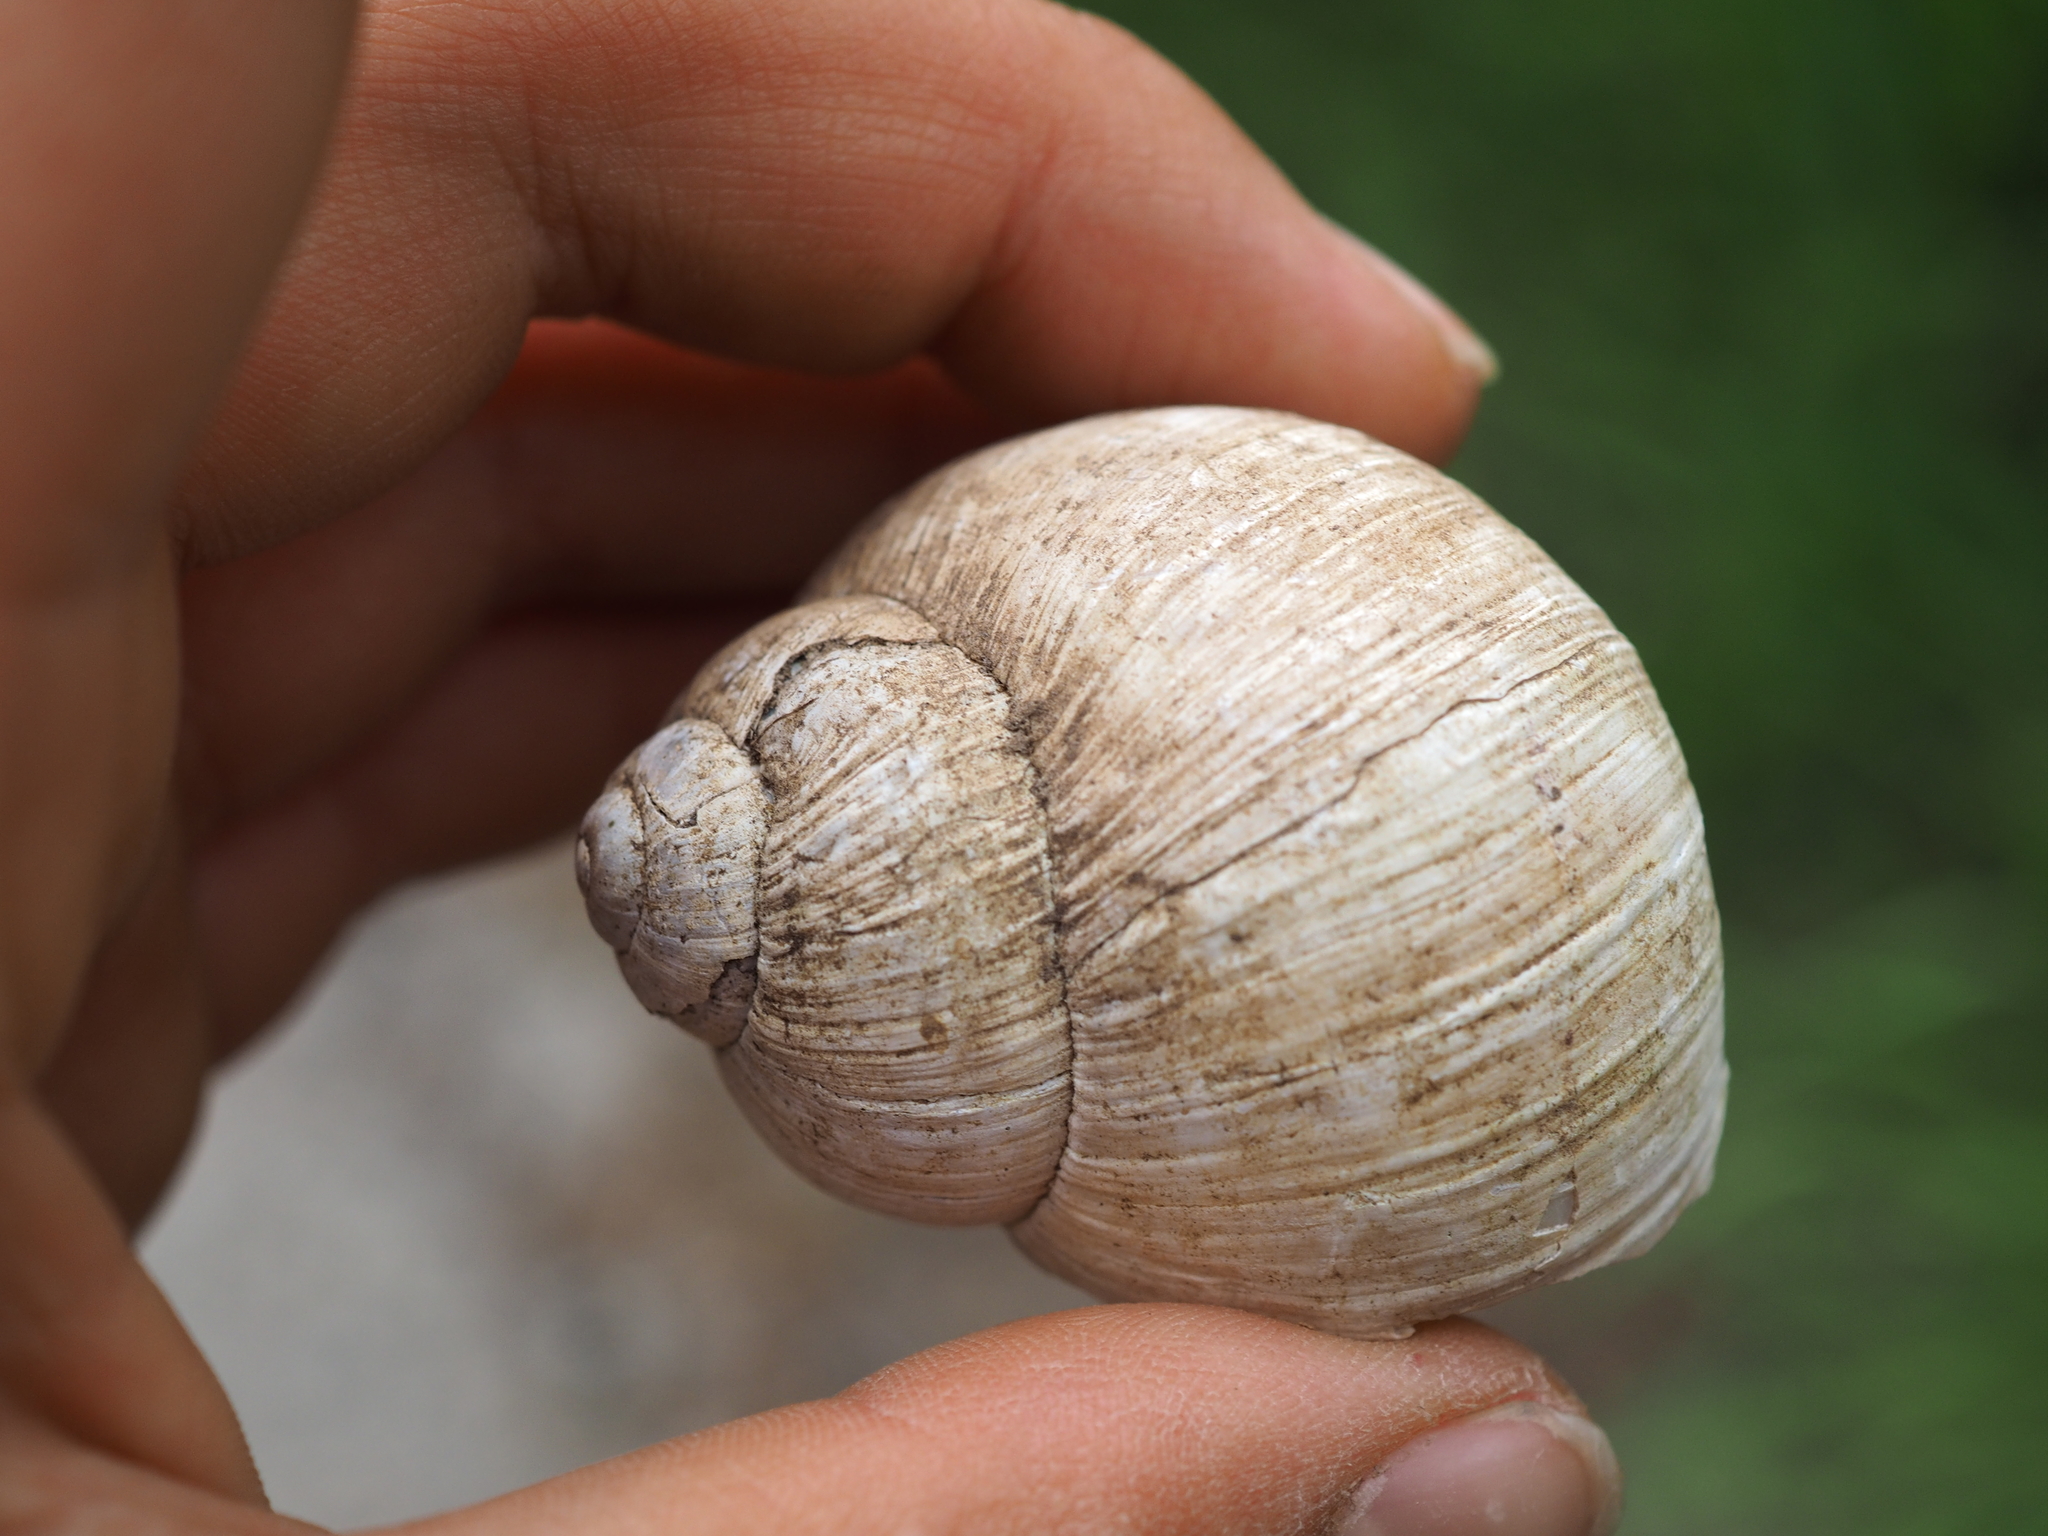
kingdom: Animalia
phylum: Mollusca
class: Gastropoda
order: Stylommatophora
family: Helicidae
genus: Helix
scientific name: Helix pomatia
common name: Roman snail
